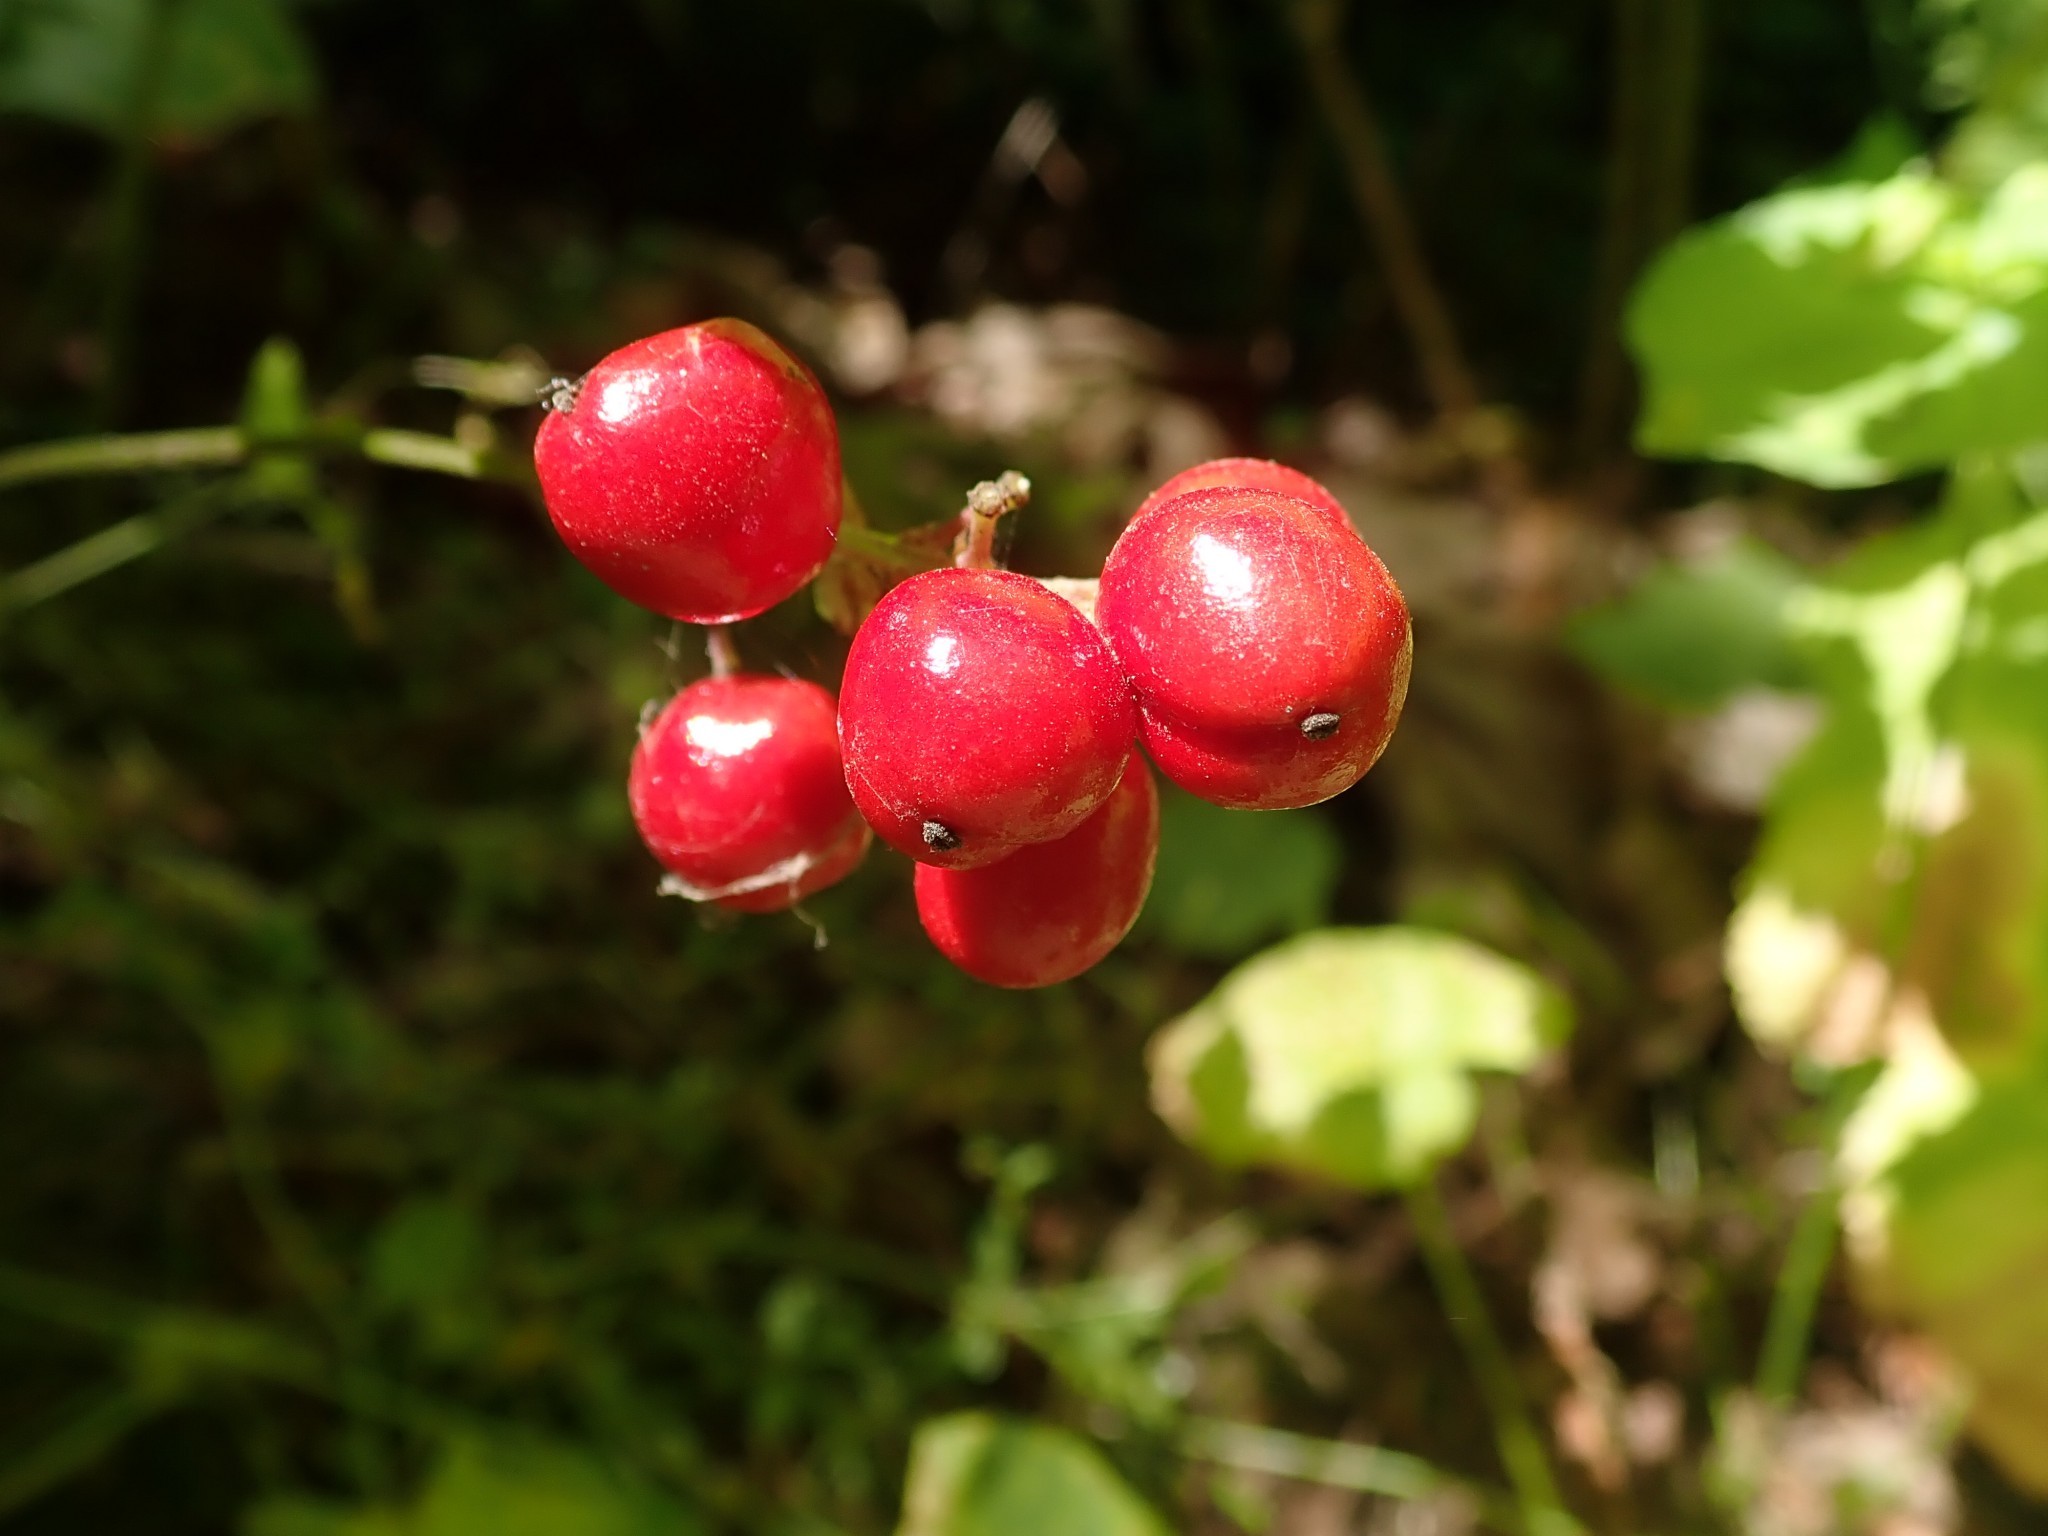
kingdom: Plantae
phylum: Tracheophyta
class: Magnoliopsida
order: Ranunculales
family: Ranunculaceae
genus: Actaea
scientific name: Actaea rubra
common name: Red baneberry
